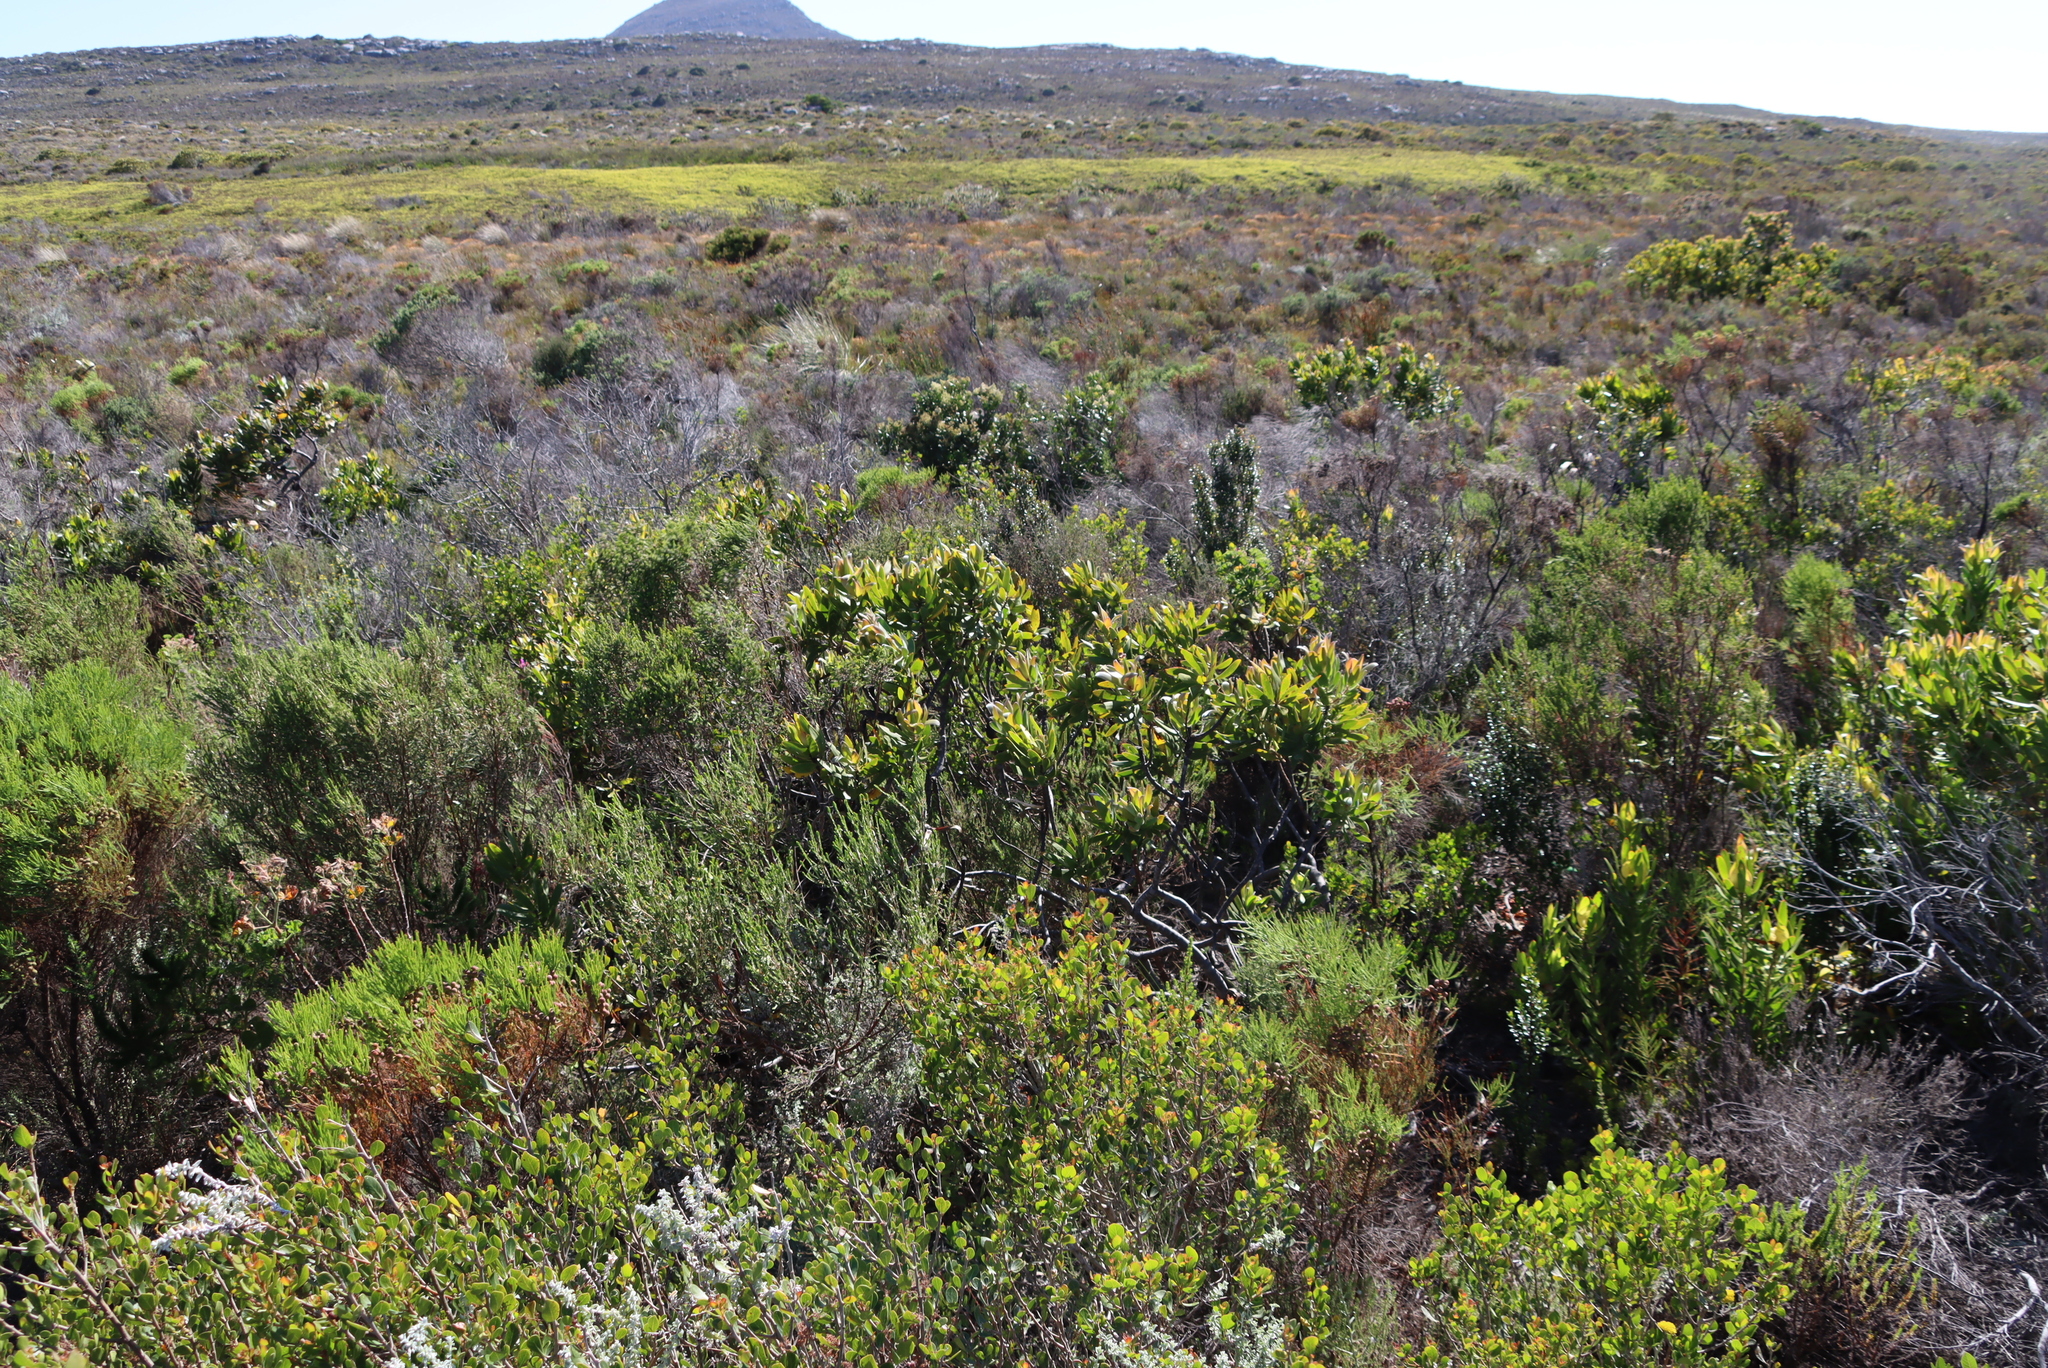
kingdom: Plantae
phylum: Tracheophyta
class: Magnoliopsida
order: Proteales
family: Proteaceae
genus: Leucadendron
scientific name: Leucadendron laureolum
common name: Golden sunshinebush
